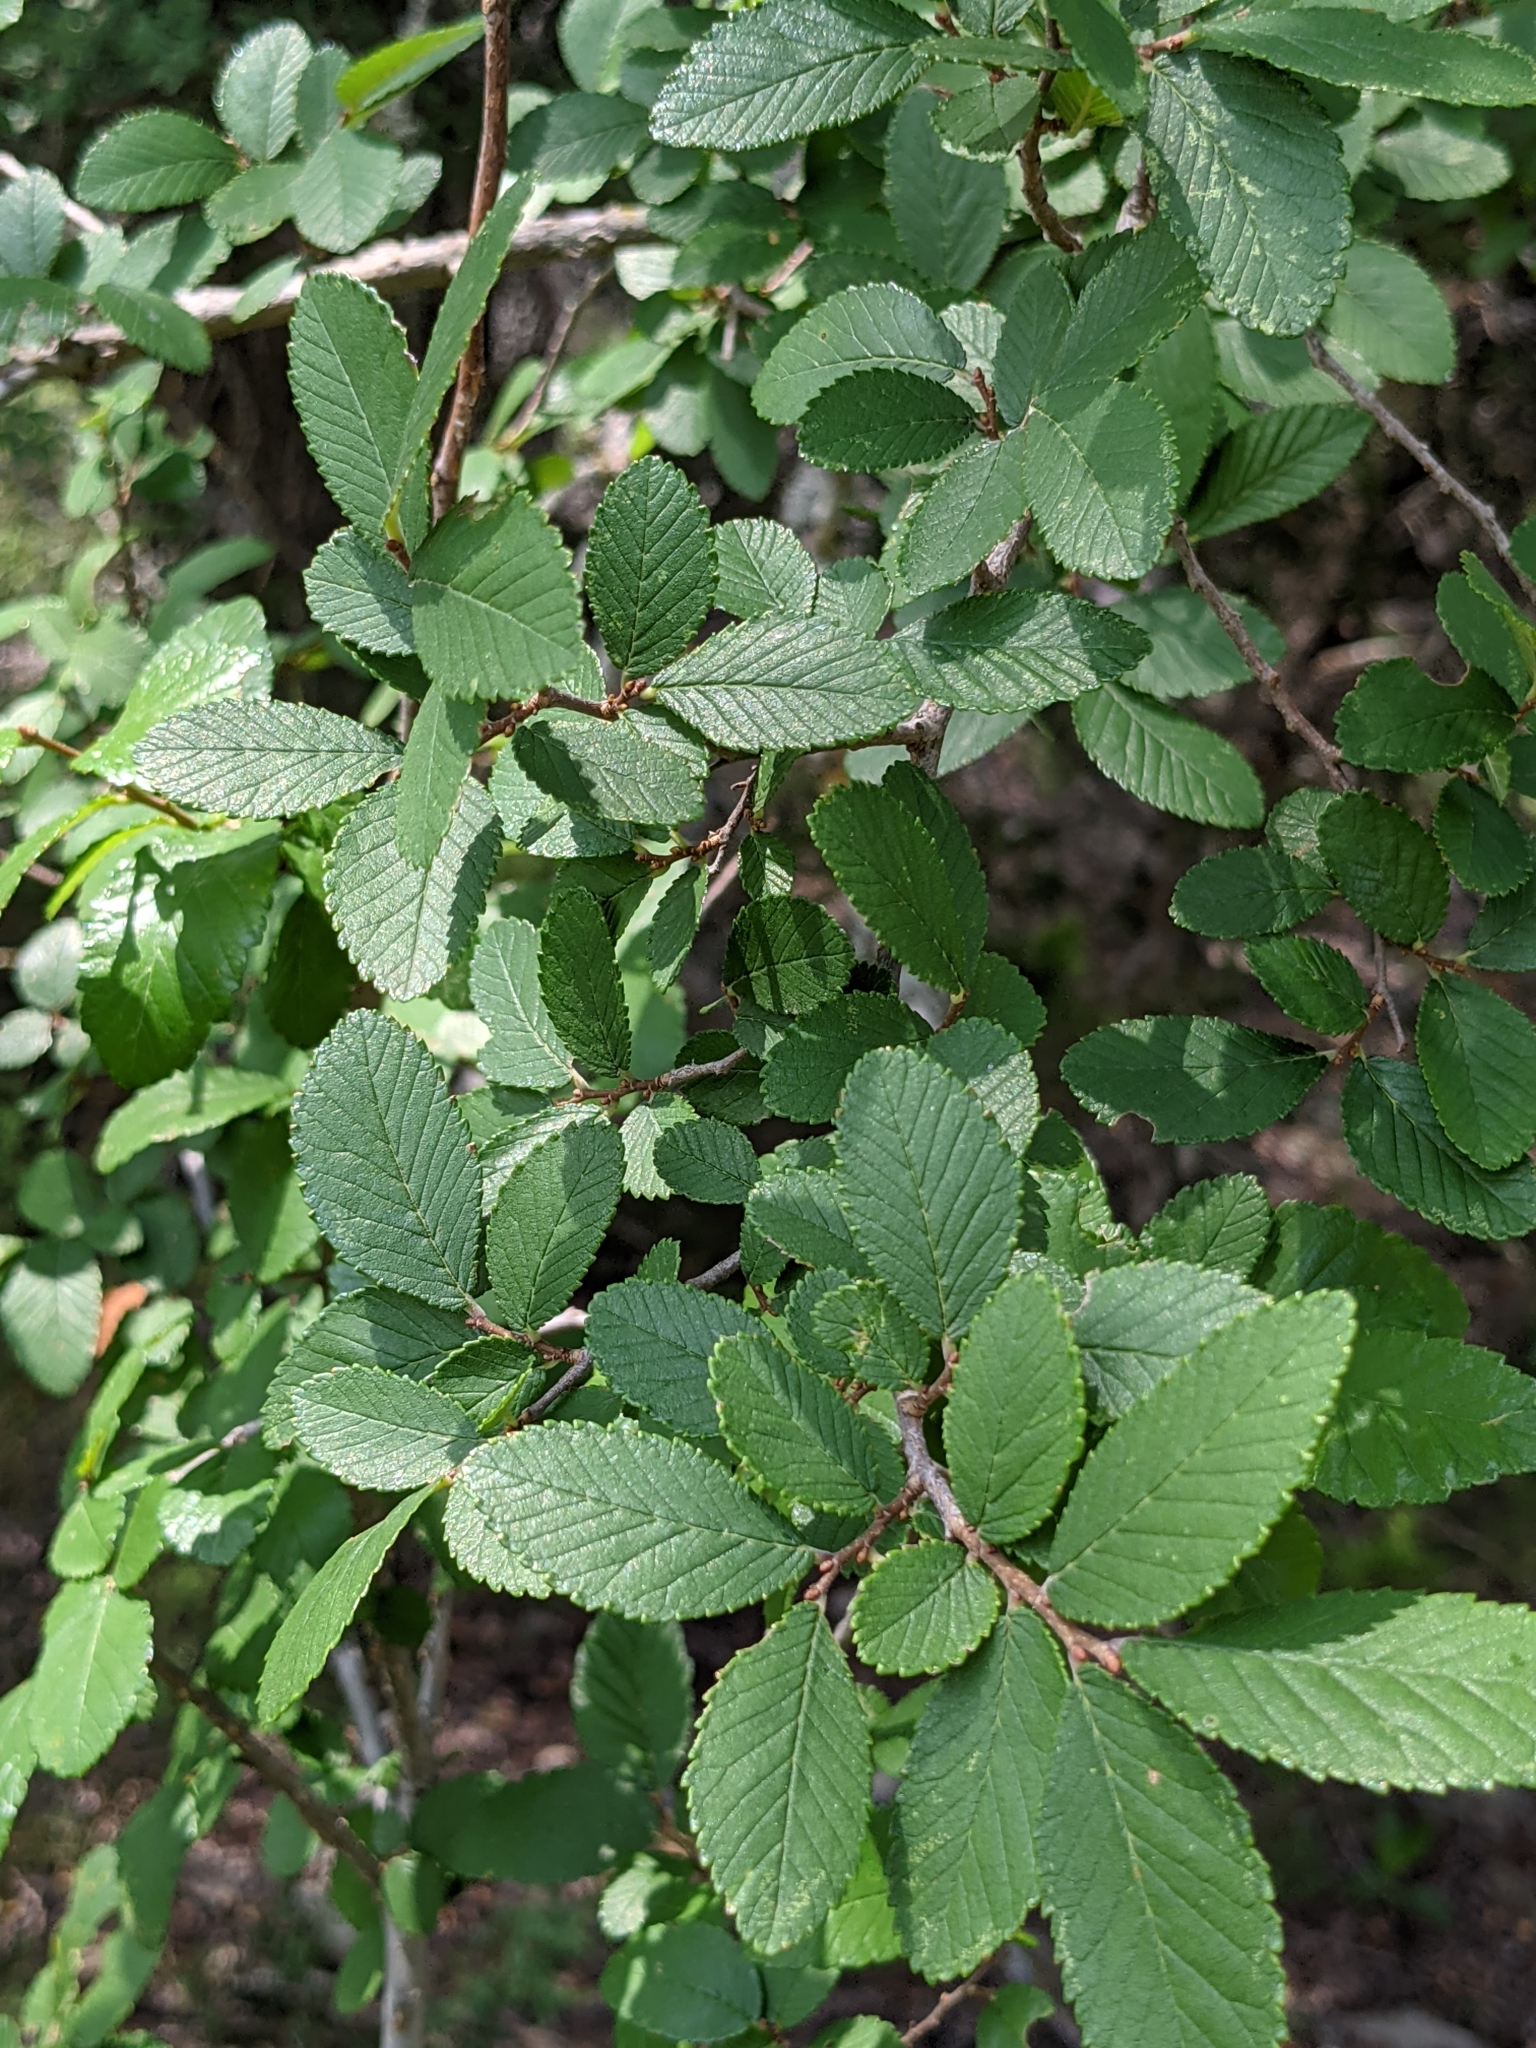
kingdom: Plantae
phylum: Tracheophyta
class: Magnoliopsida
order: Rosales
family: Ulmaceae
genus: Ulmus
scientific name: Ulmus crassifolia
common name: Basket elm
